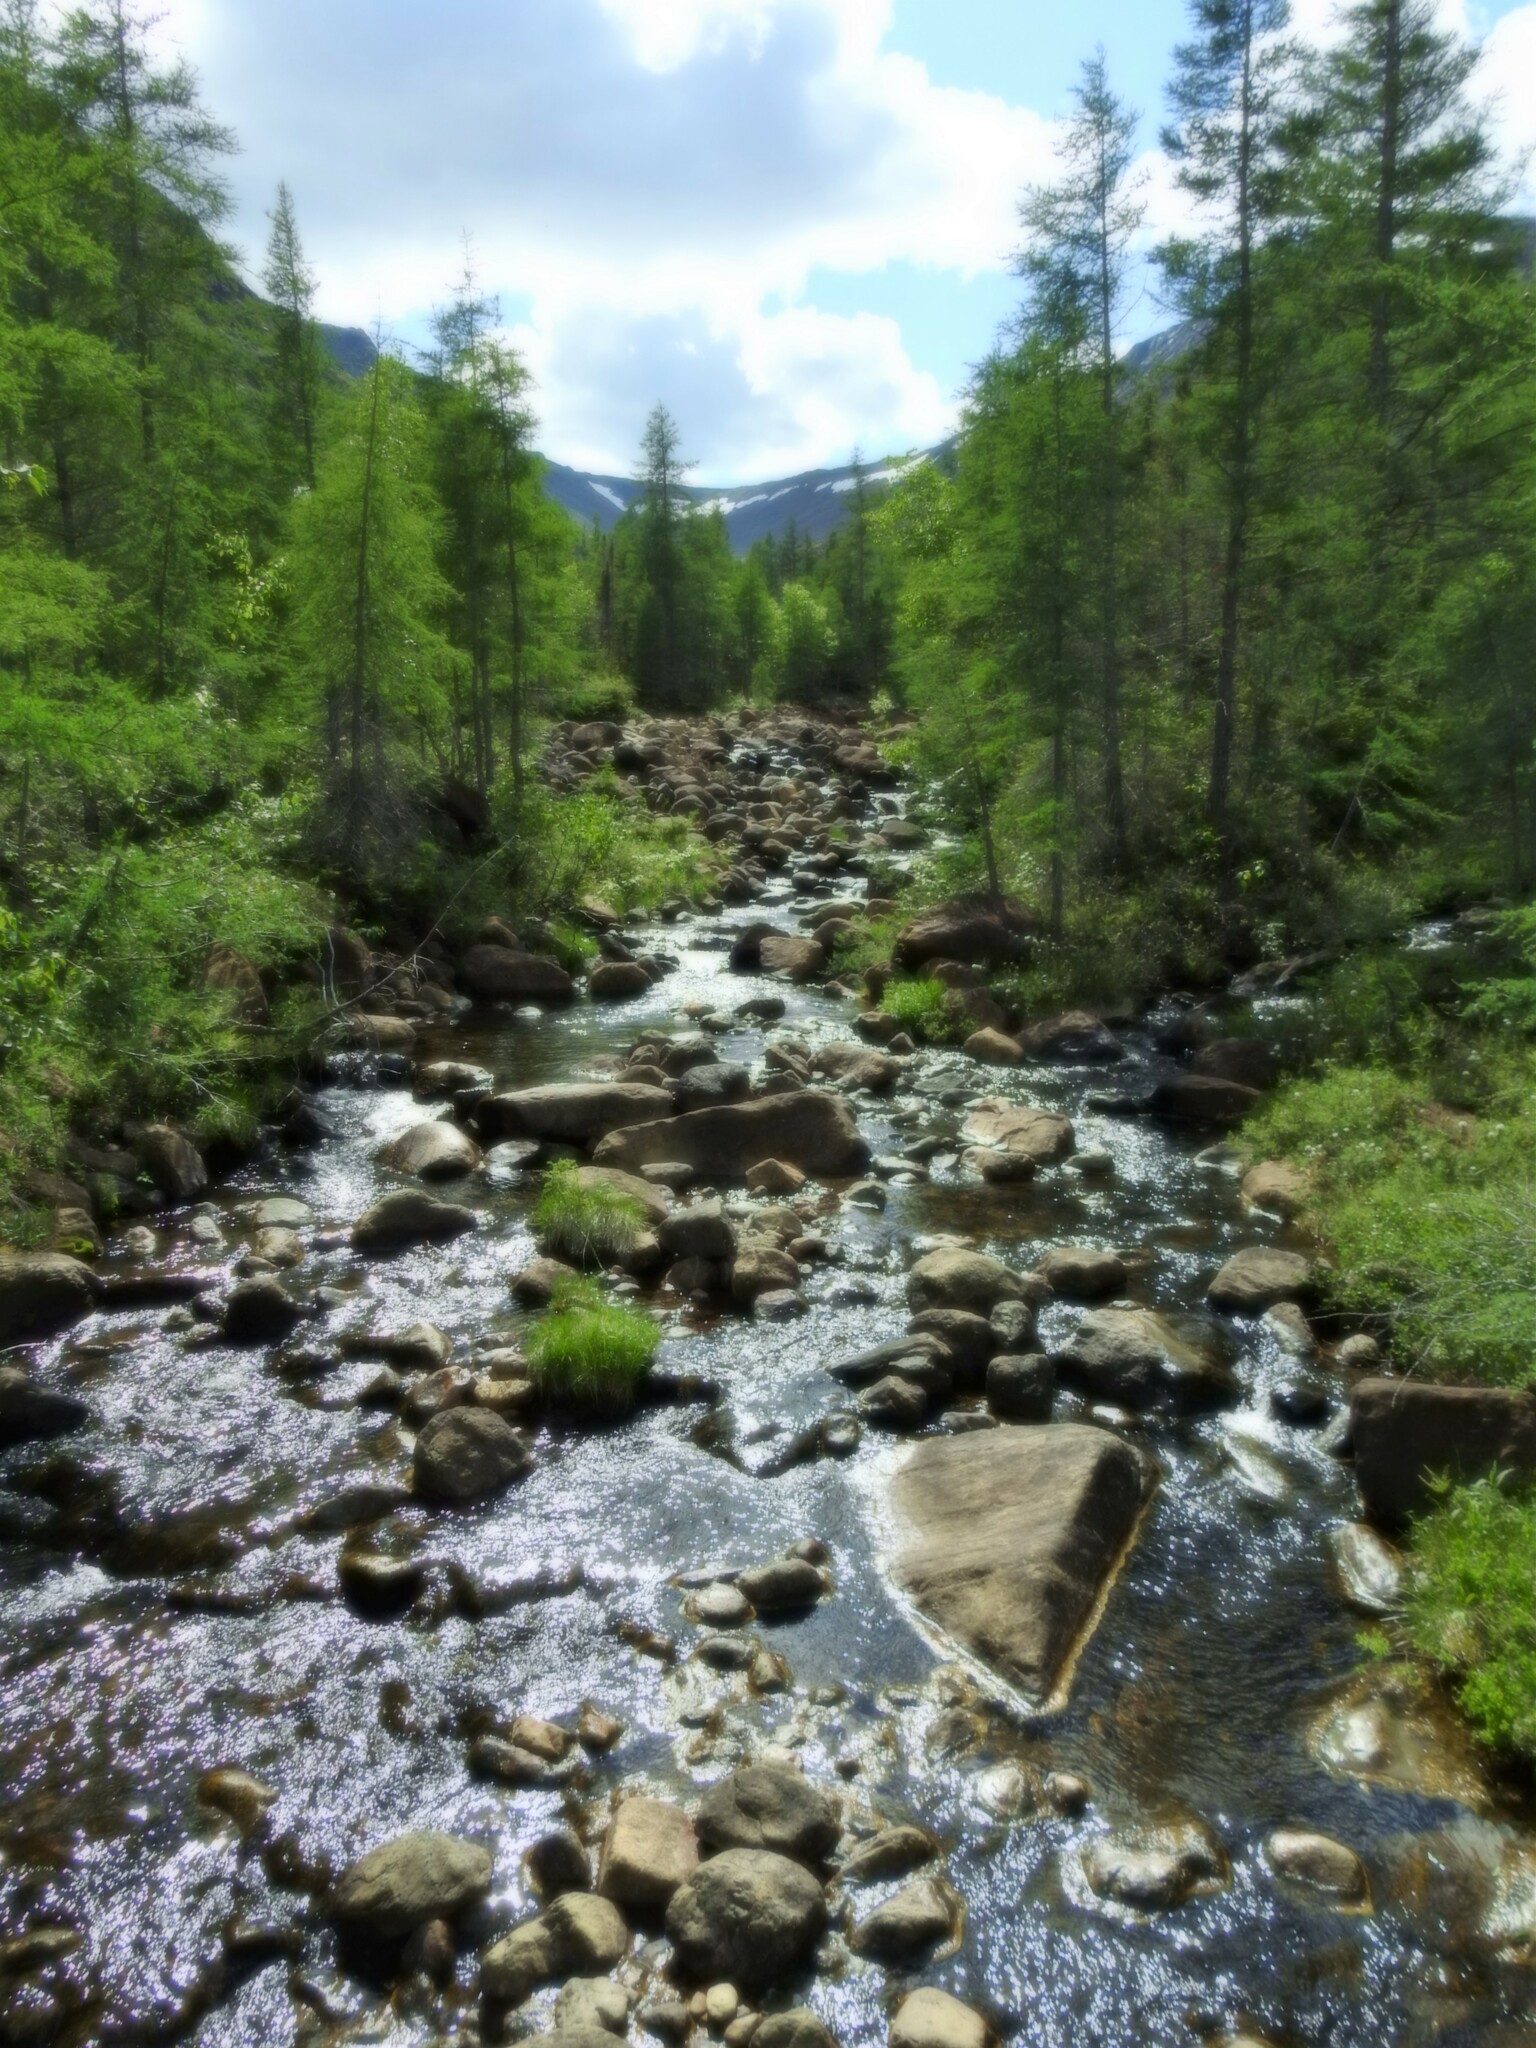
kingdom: Plantae
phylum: Tracheophyta
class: Pinopsida
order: Pinales
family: Pinaceae
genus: Larix
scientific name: Larix laricina
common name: American larch
